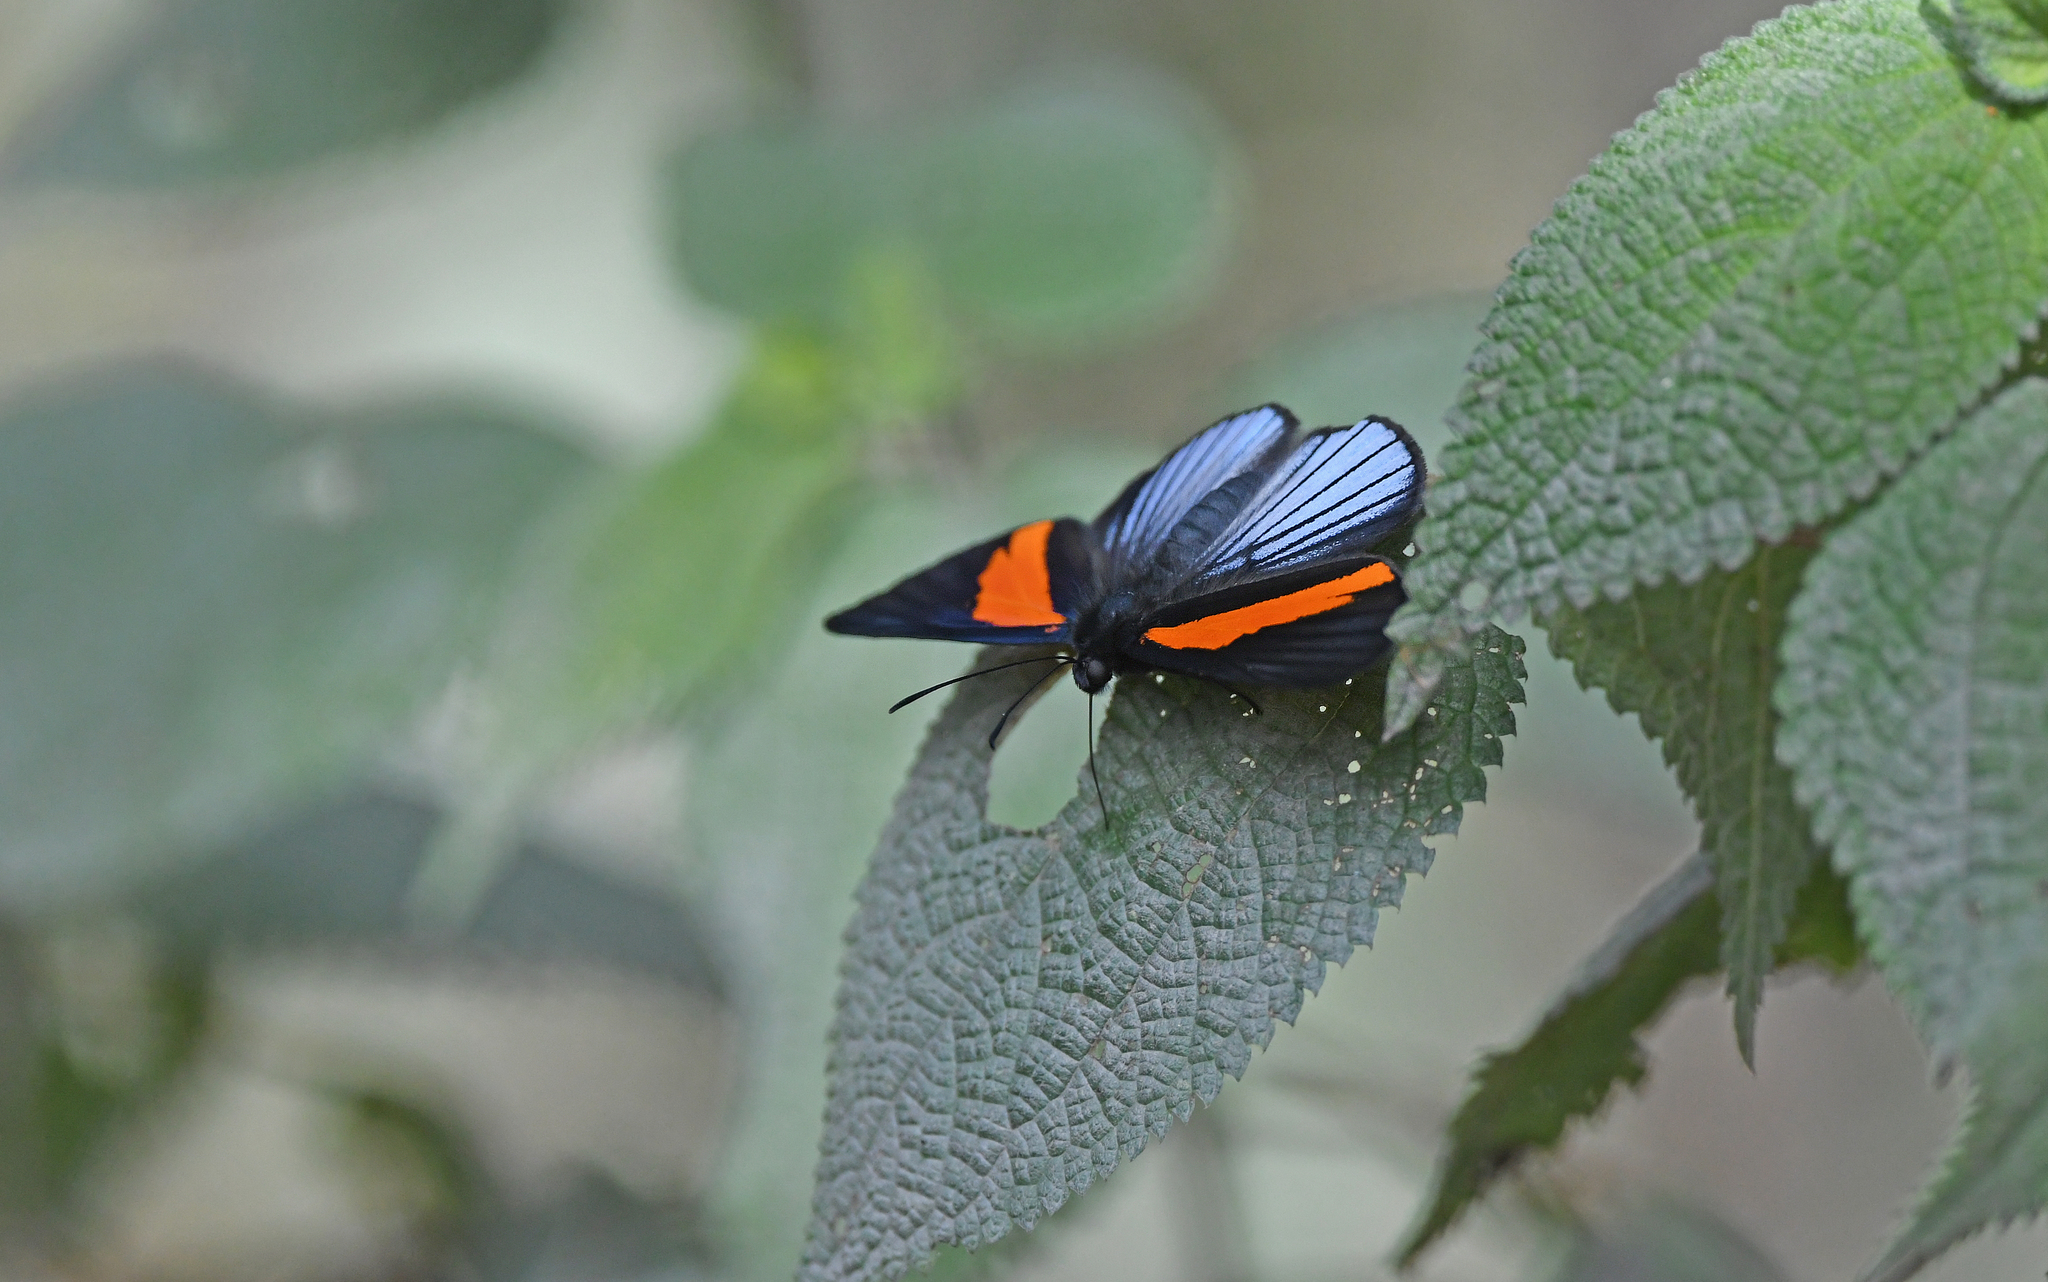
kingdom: Animalia
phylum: Arthropoda
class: Insecta
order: Lepidoptera
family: Riodinidae
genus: Lucillella
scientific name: Lucillella asterra
